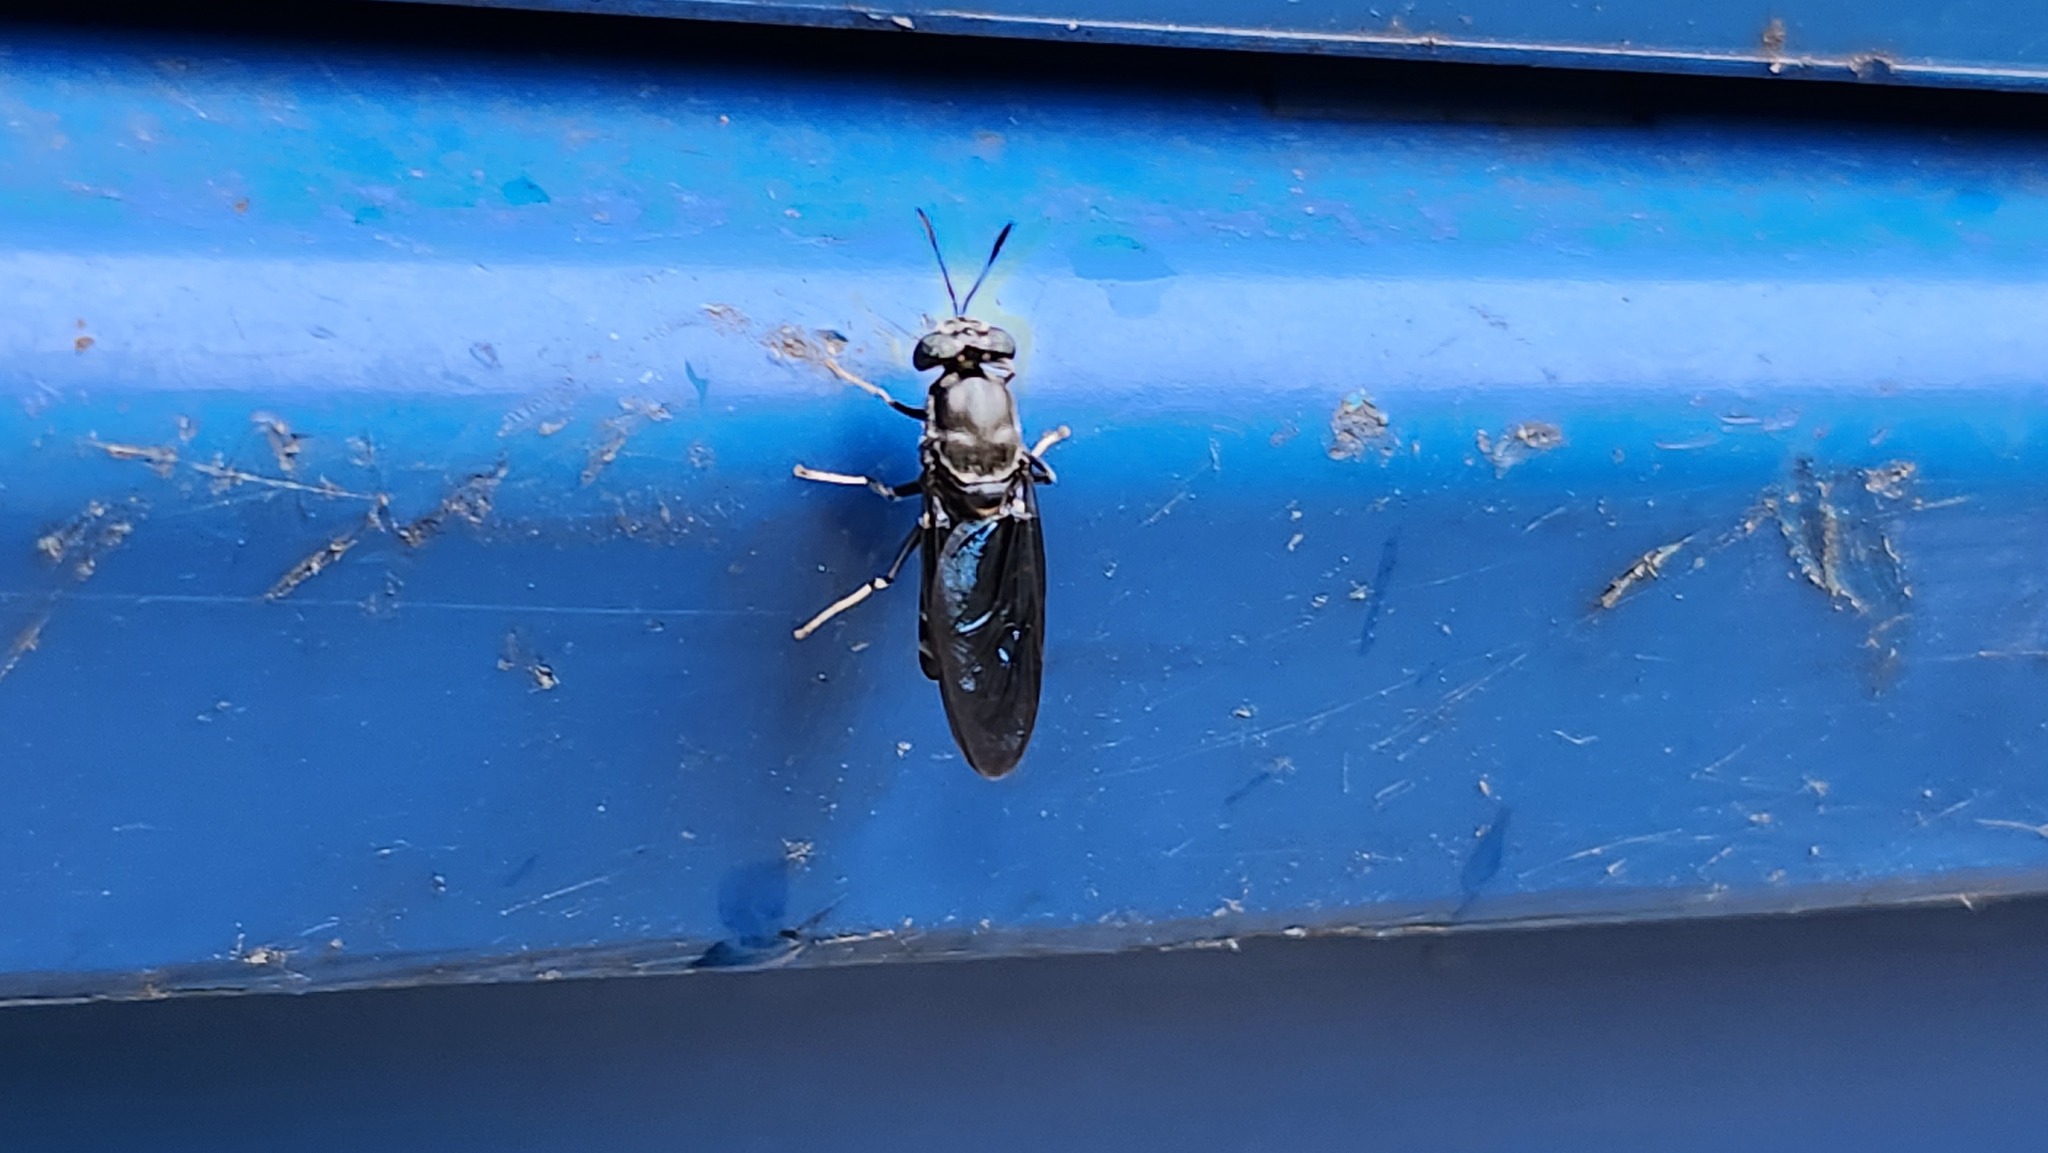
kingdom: Animalia
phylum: Arthropoda
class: Insecta
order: Diptera
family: Stratiomyidae
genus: Hermetia
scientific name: Hermetia illucens
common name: Black soldier fly
